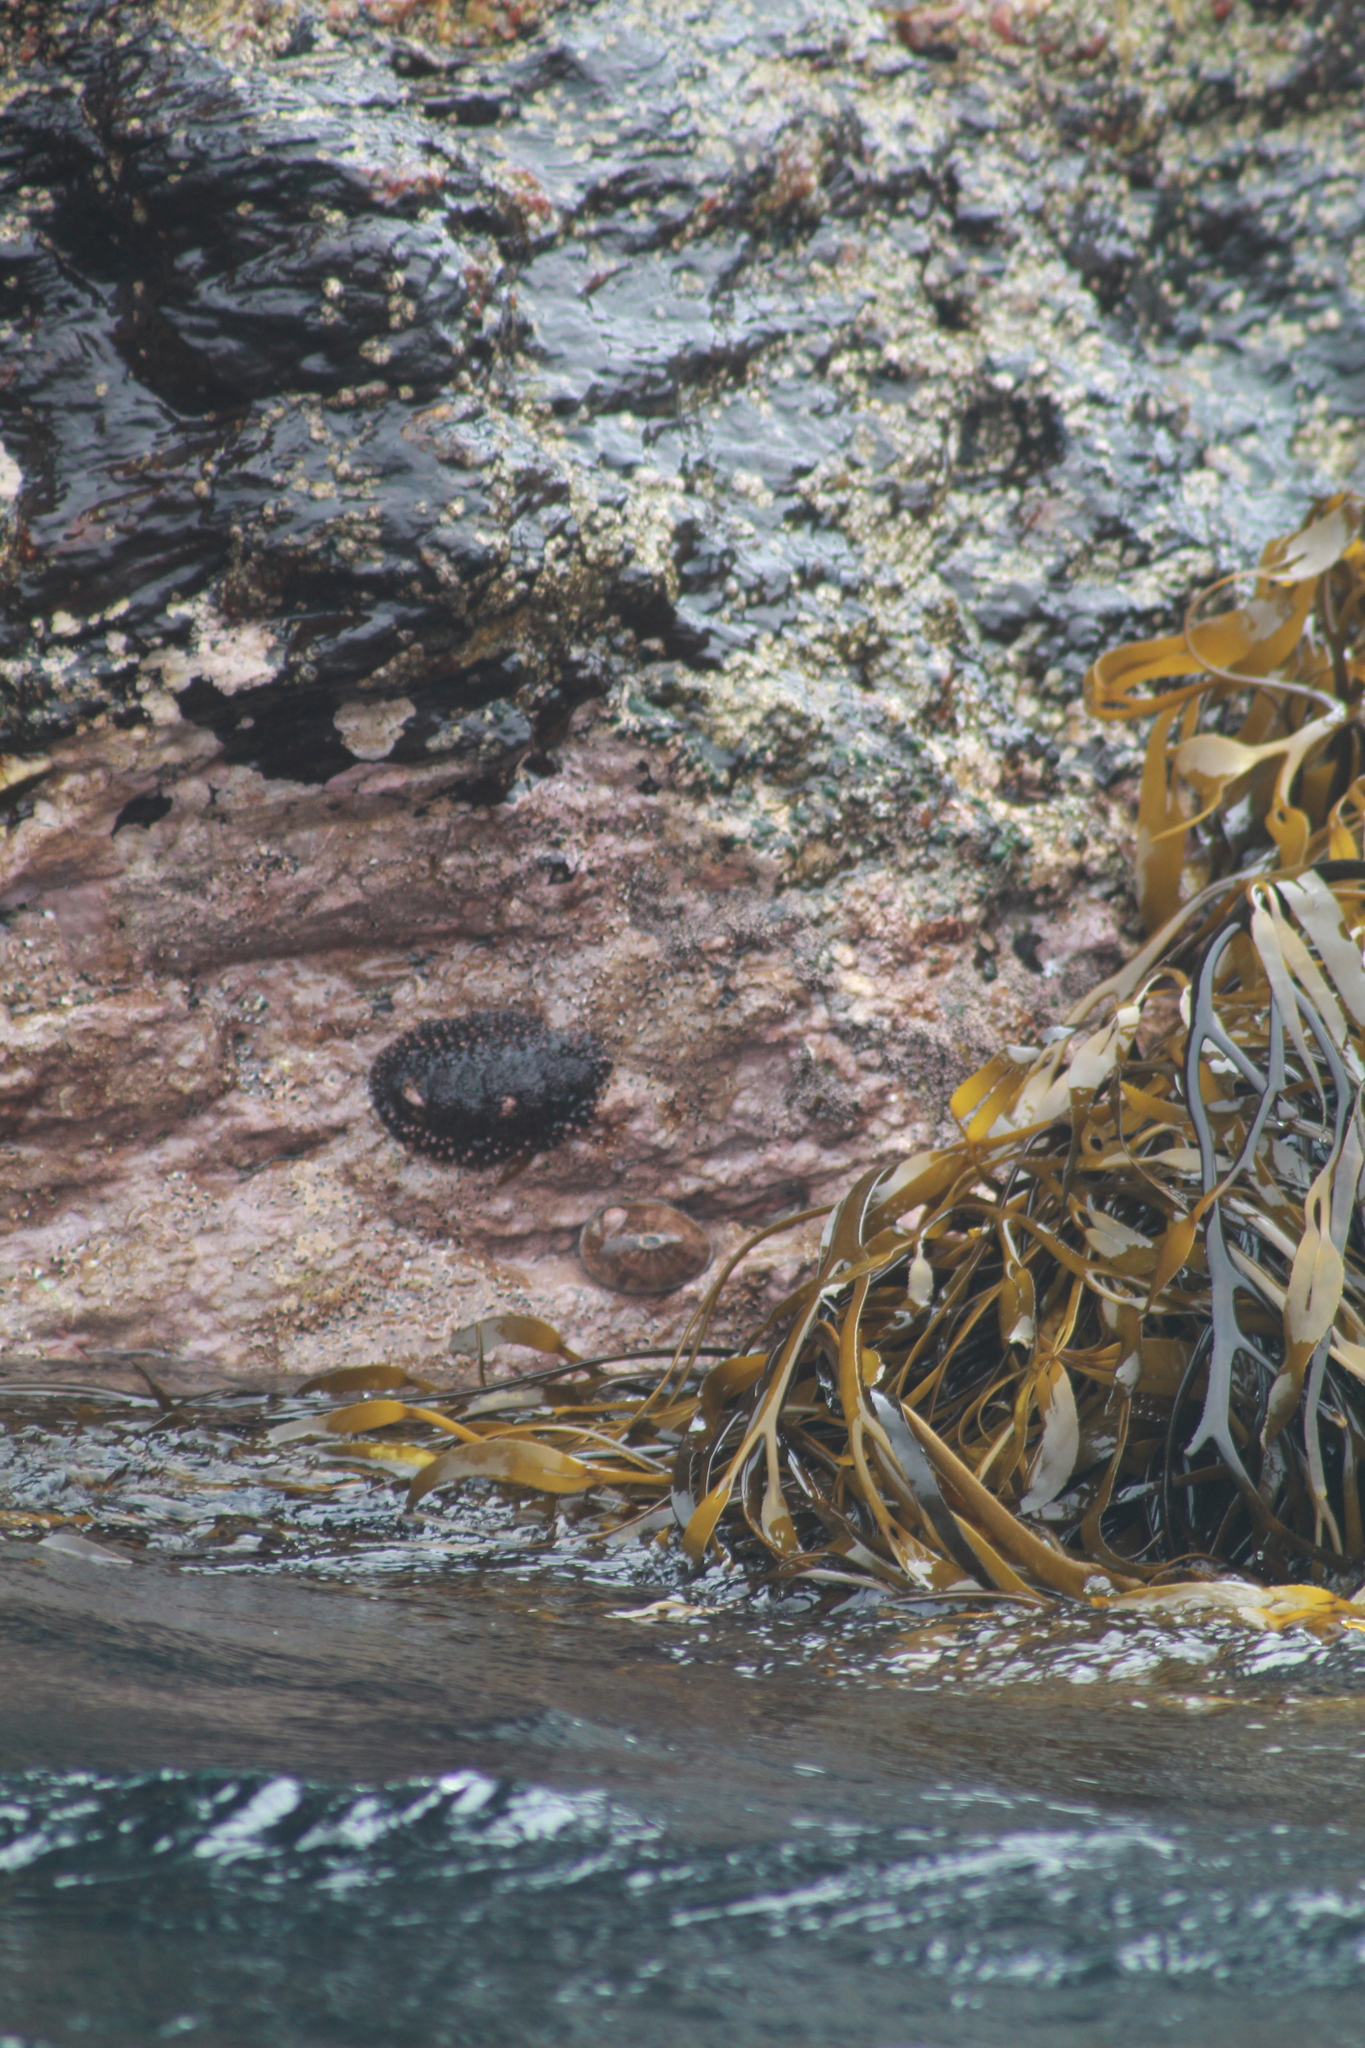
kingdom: Animalia
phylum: Mollusca
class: Polyplacophora
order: Chitonida
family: Chitonidae
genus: Enoplochiton
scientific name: Enoplochiton echinatus
